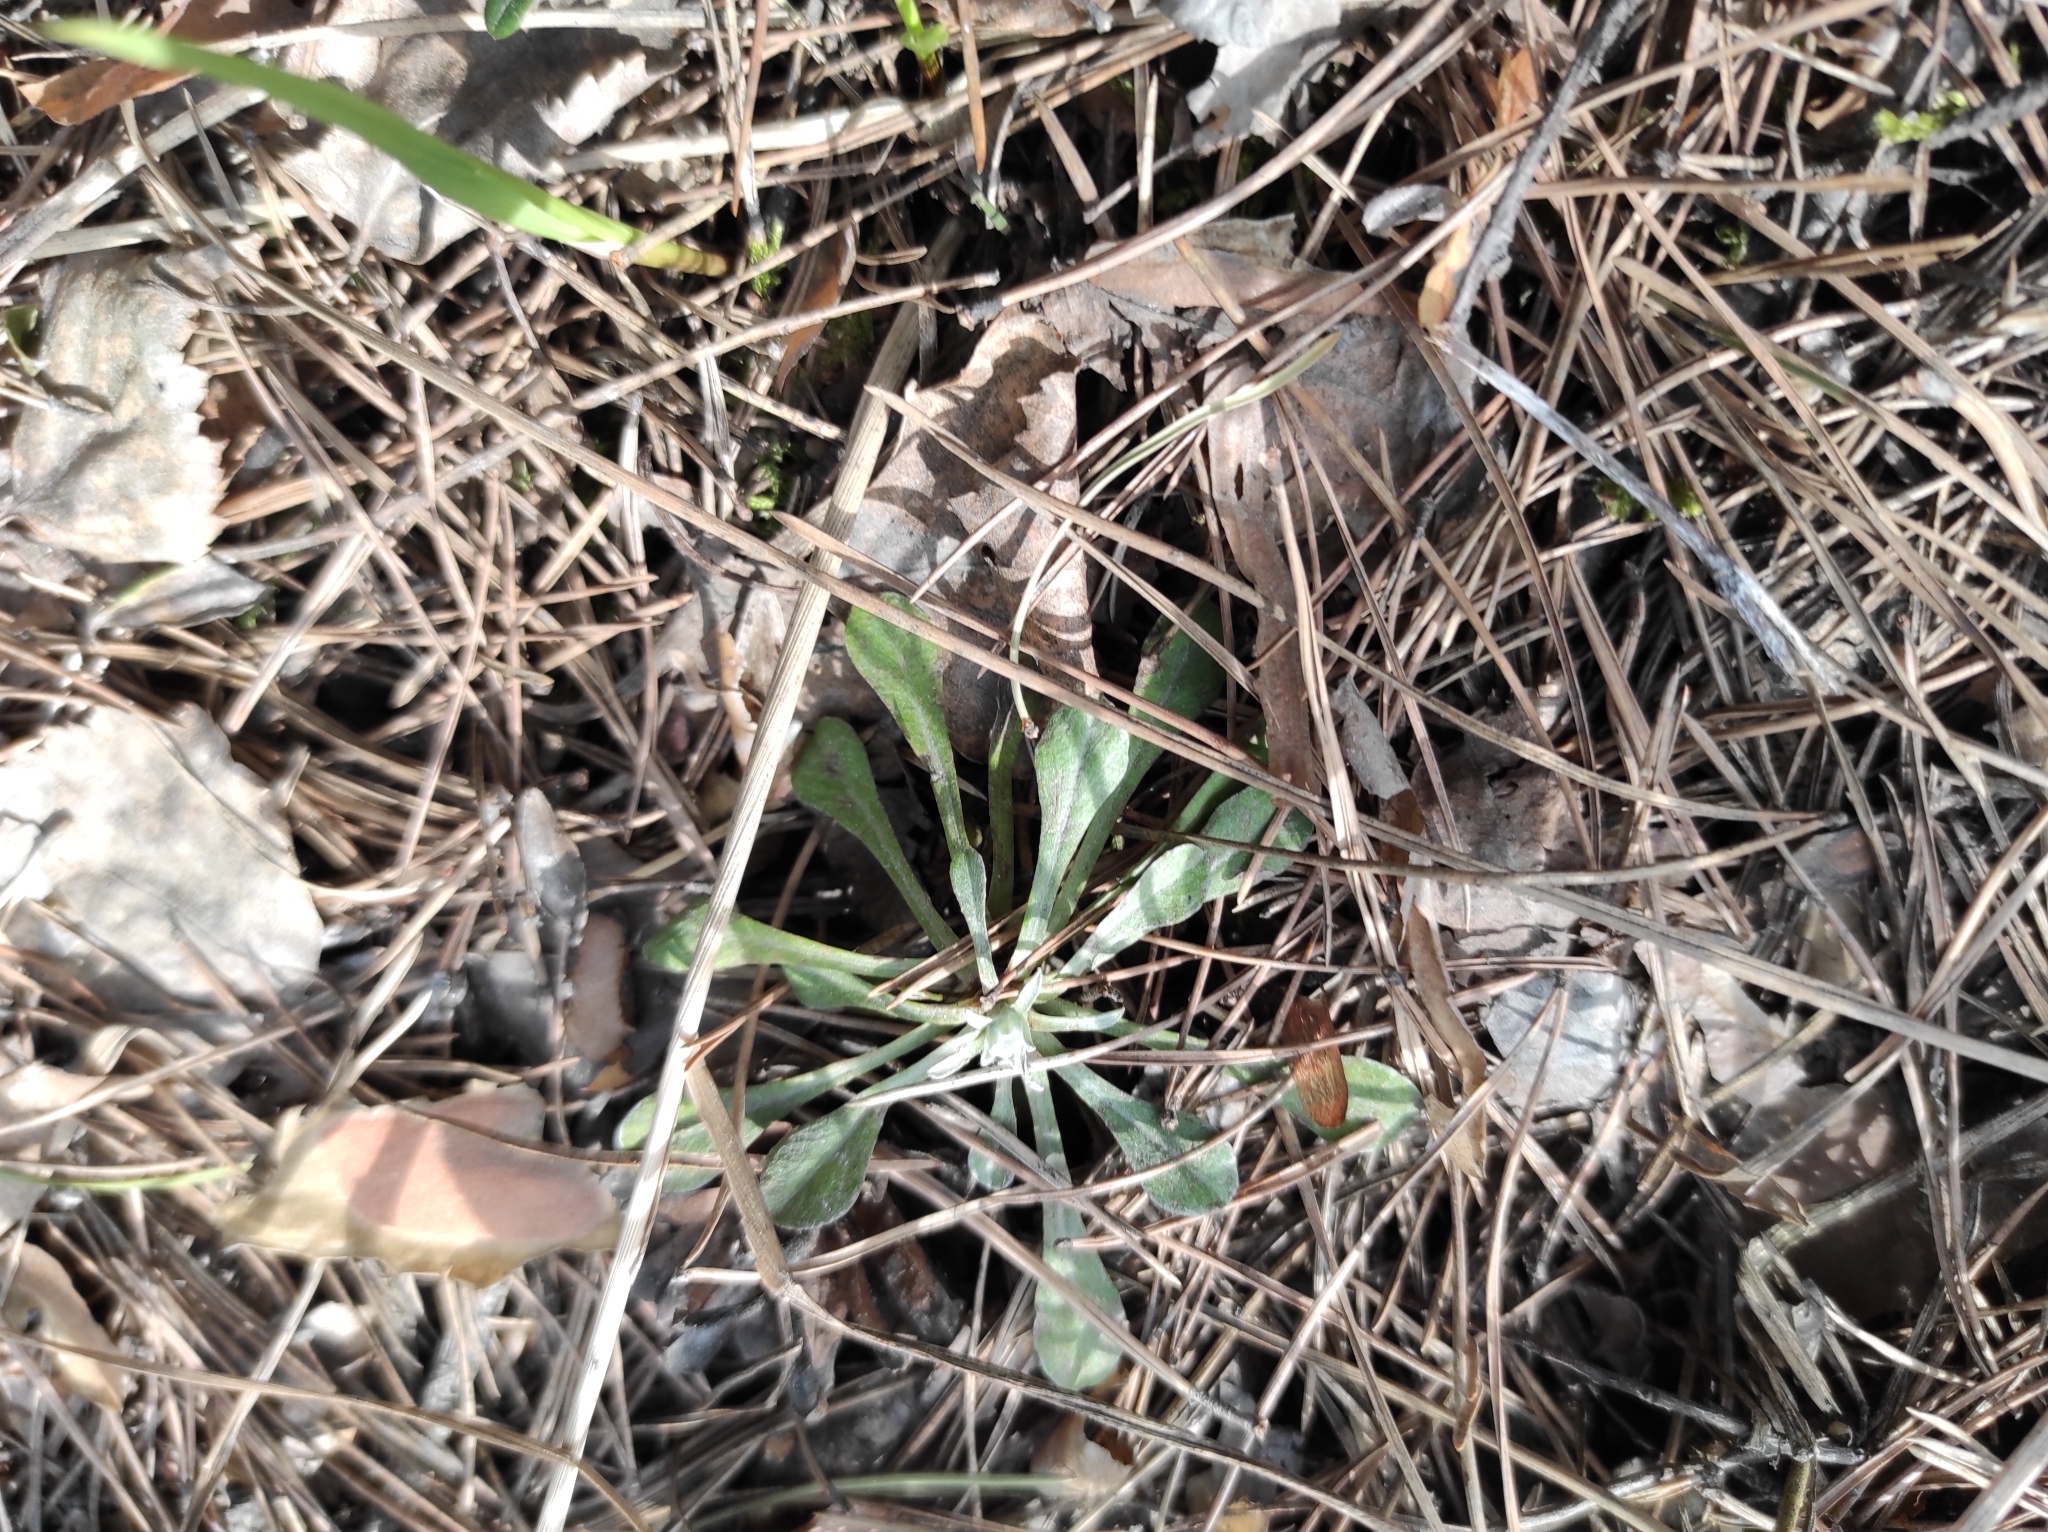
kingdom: Plantae
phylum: Tracheophyta
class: Magnoliopsida
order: Asterales
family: Asteraceae
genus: Antennaria
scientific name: Antennaria dioica
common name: Mountain everlasting
